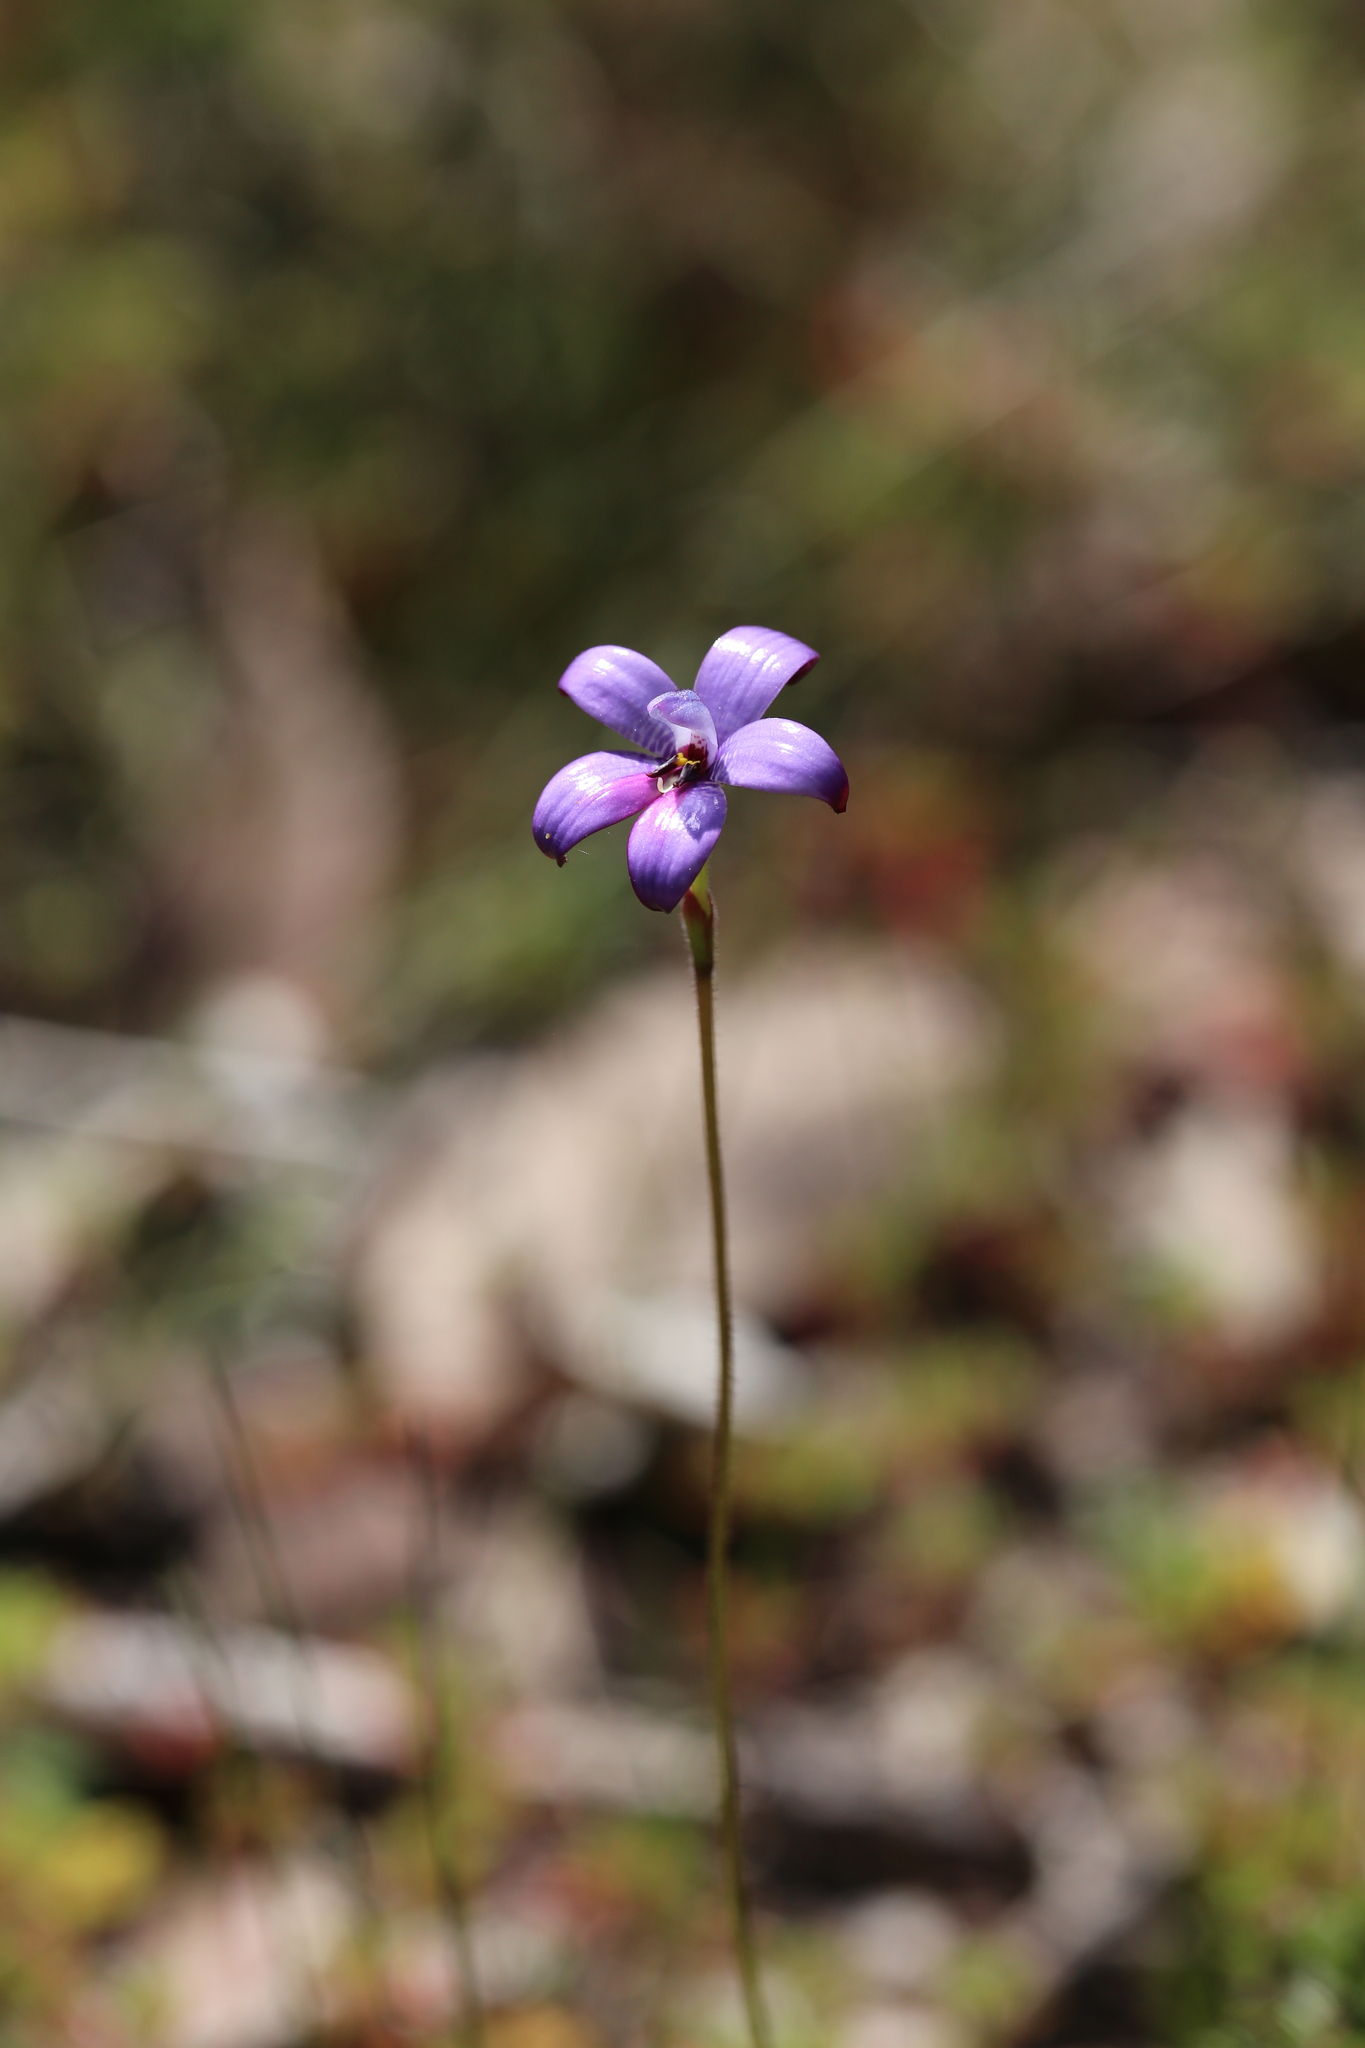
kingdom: Plantae
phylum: Tracheophyta
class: Liliopsida
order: Asparagales
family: Orchidaceae
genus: Caladenia
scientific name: Caladenia brunonis
